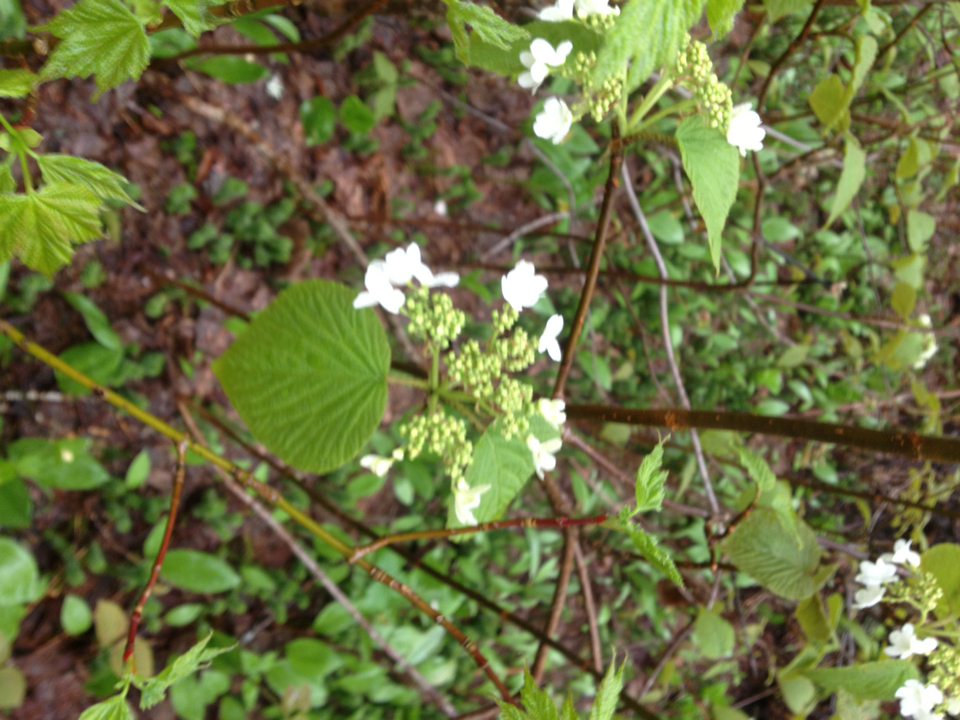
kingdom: Plantae
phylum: Tracheophyta
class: Magnoliopsida
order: Dipsacales
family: Viburnaceae
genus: Viburnum
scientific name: Viburnum lantanoides
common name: Hobblebush
